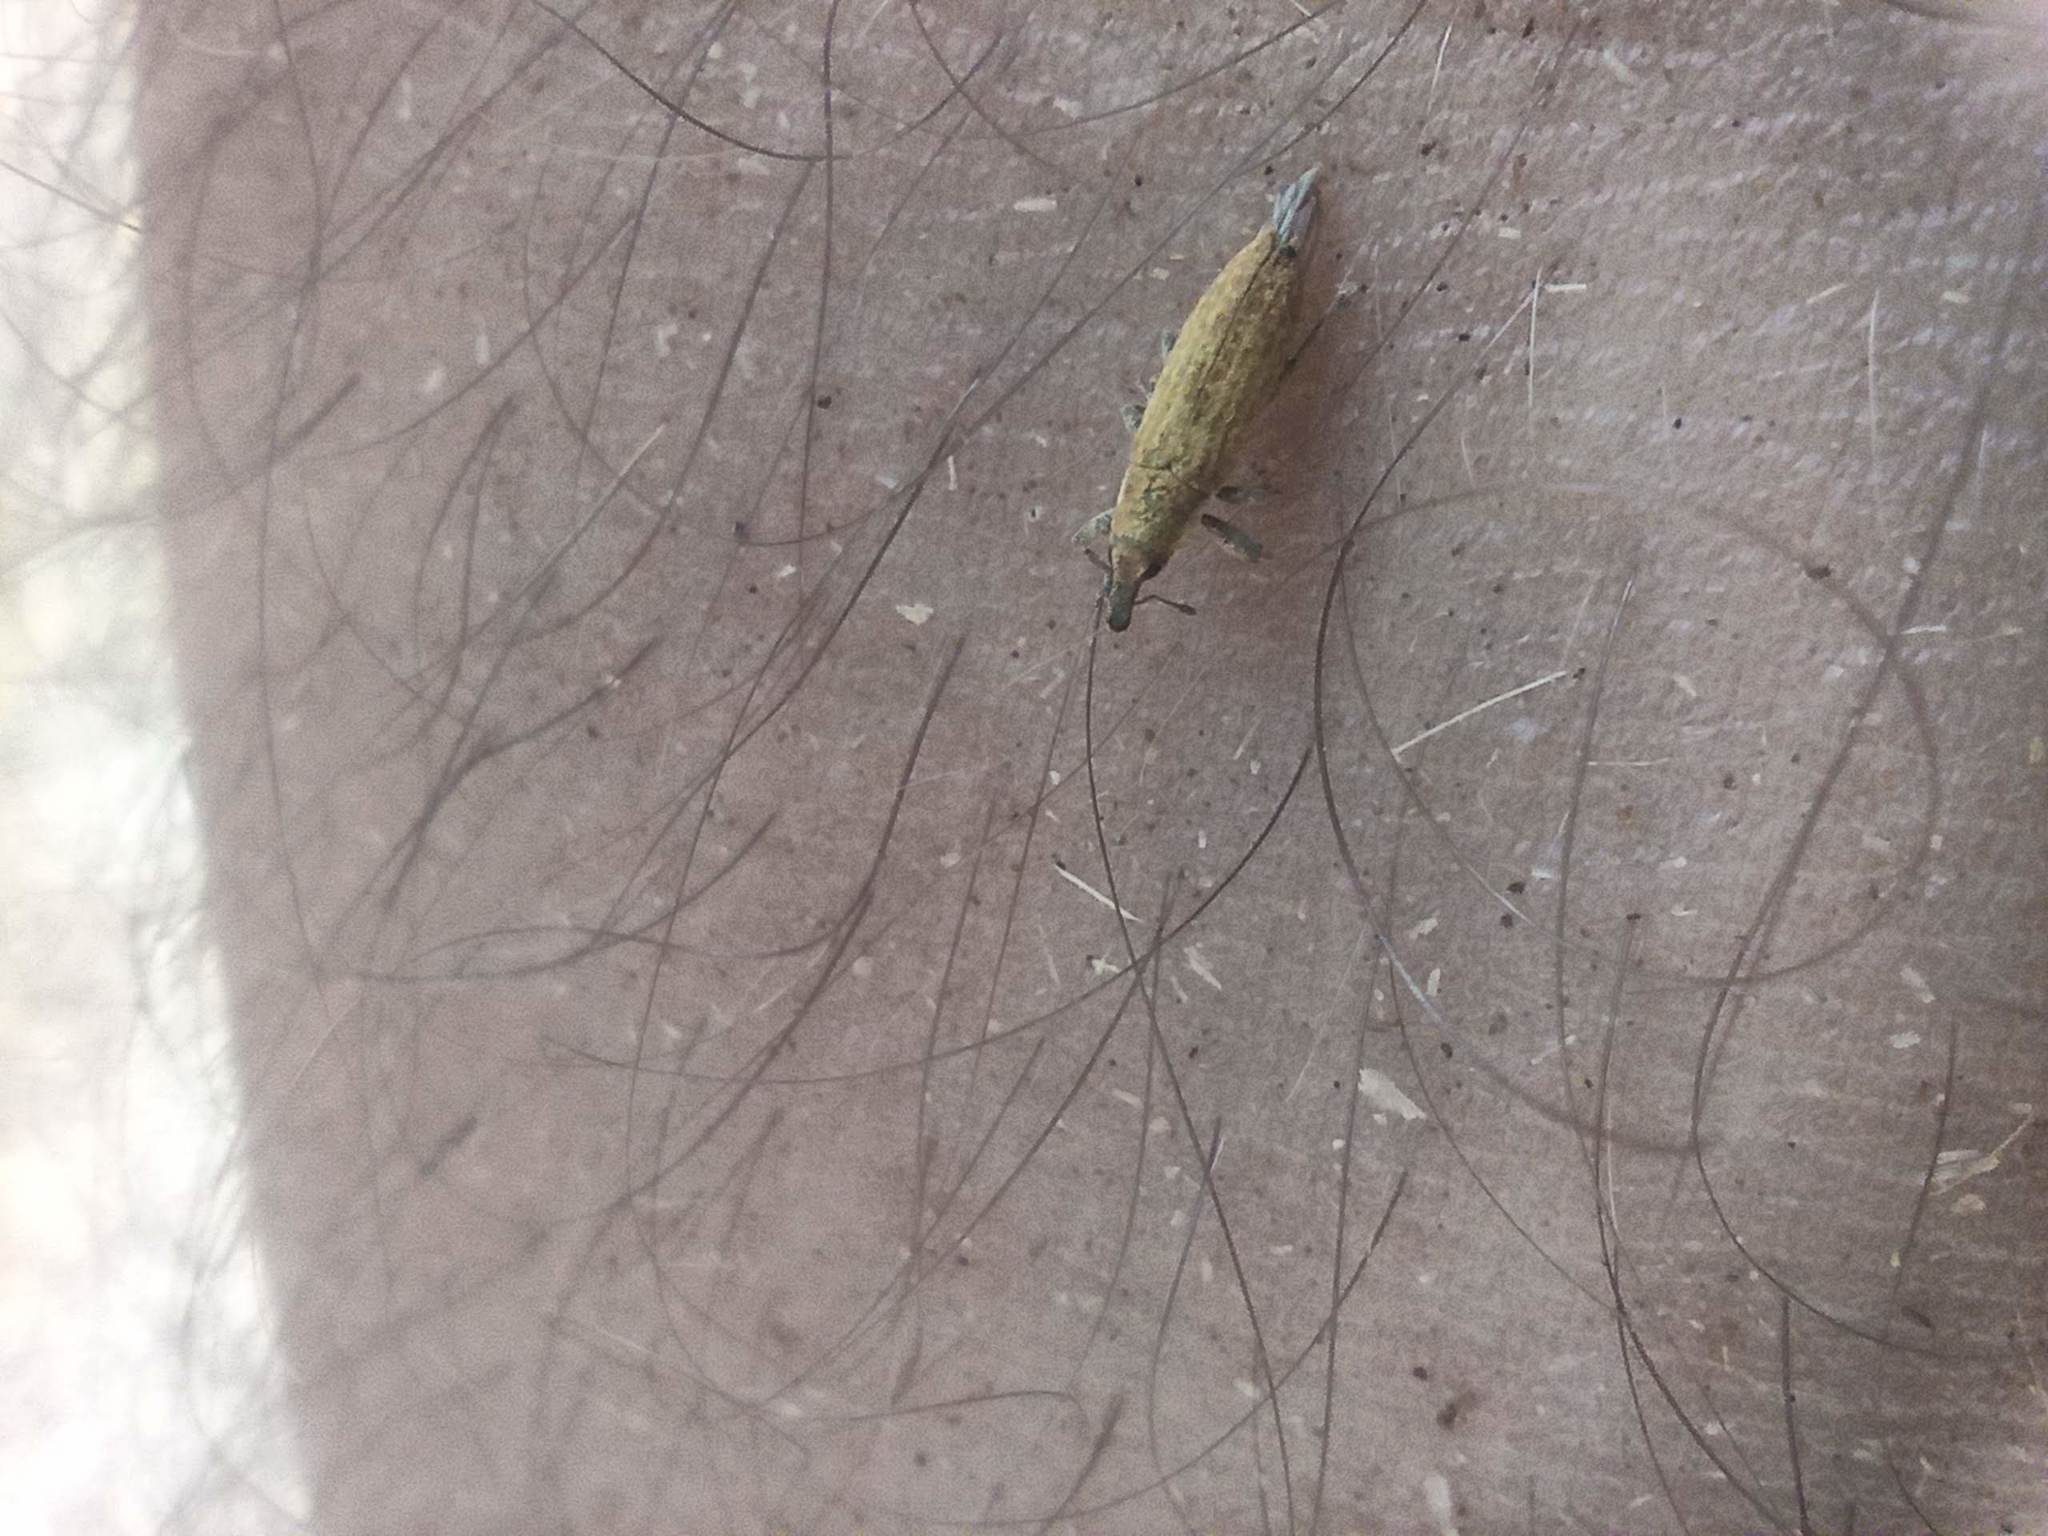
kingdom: Animalia
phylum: Arthropoda
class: Insecta
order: Coleoptera
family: Curculionidae
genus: Lixus
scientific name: Lixus purpurariensis
